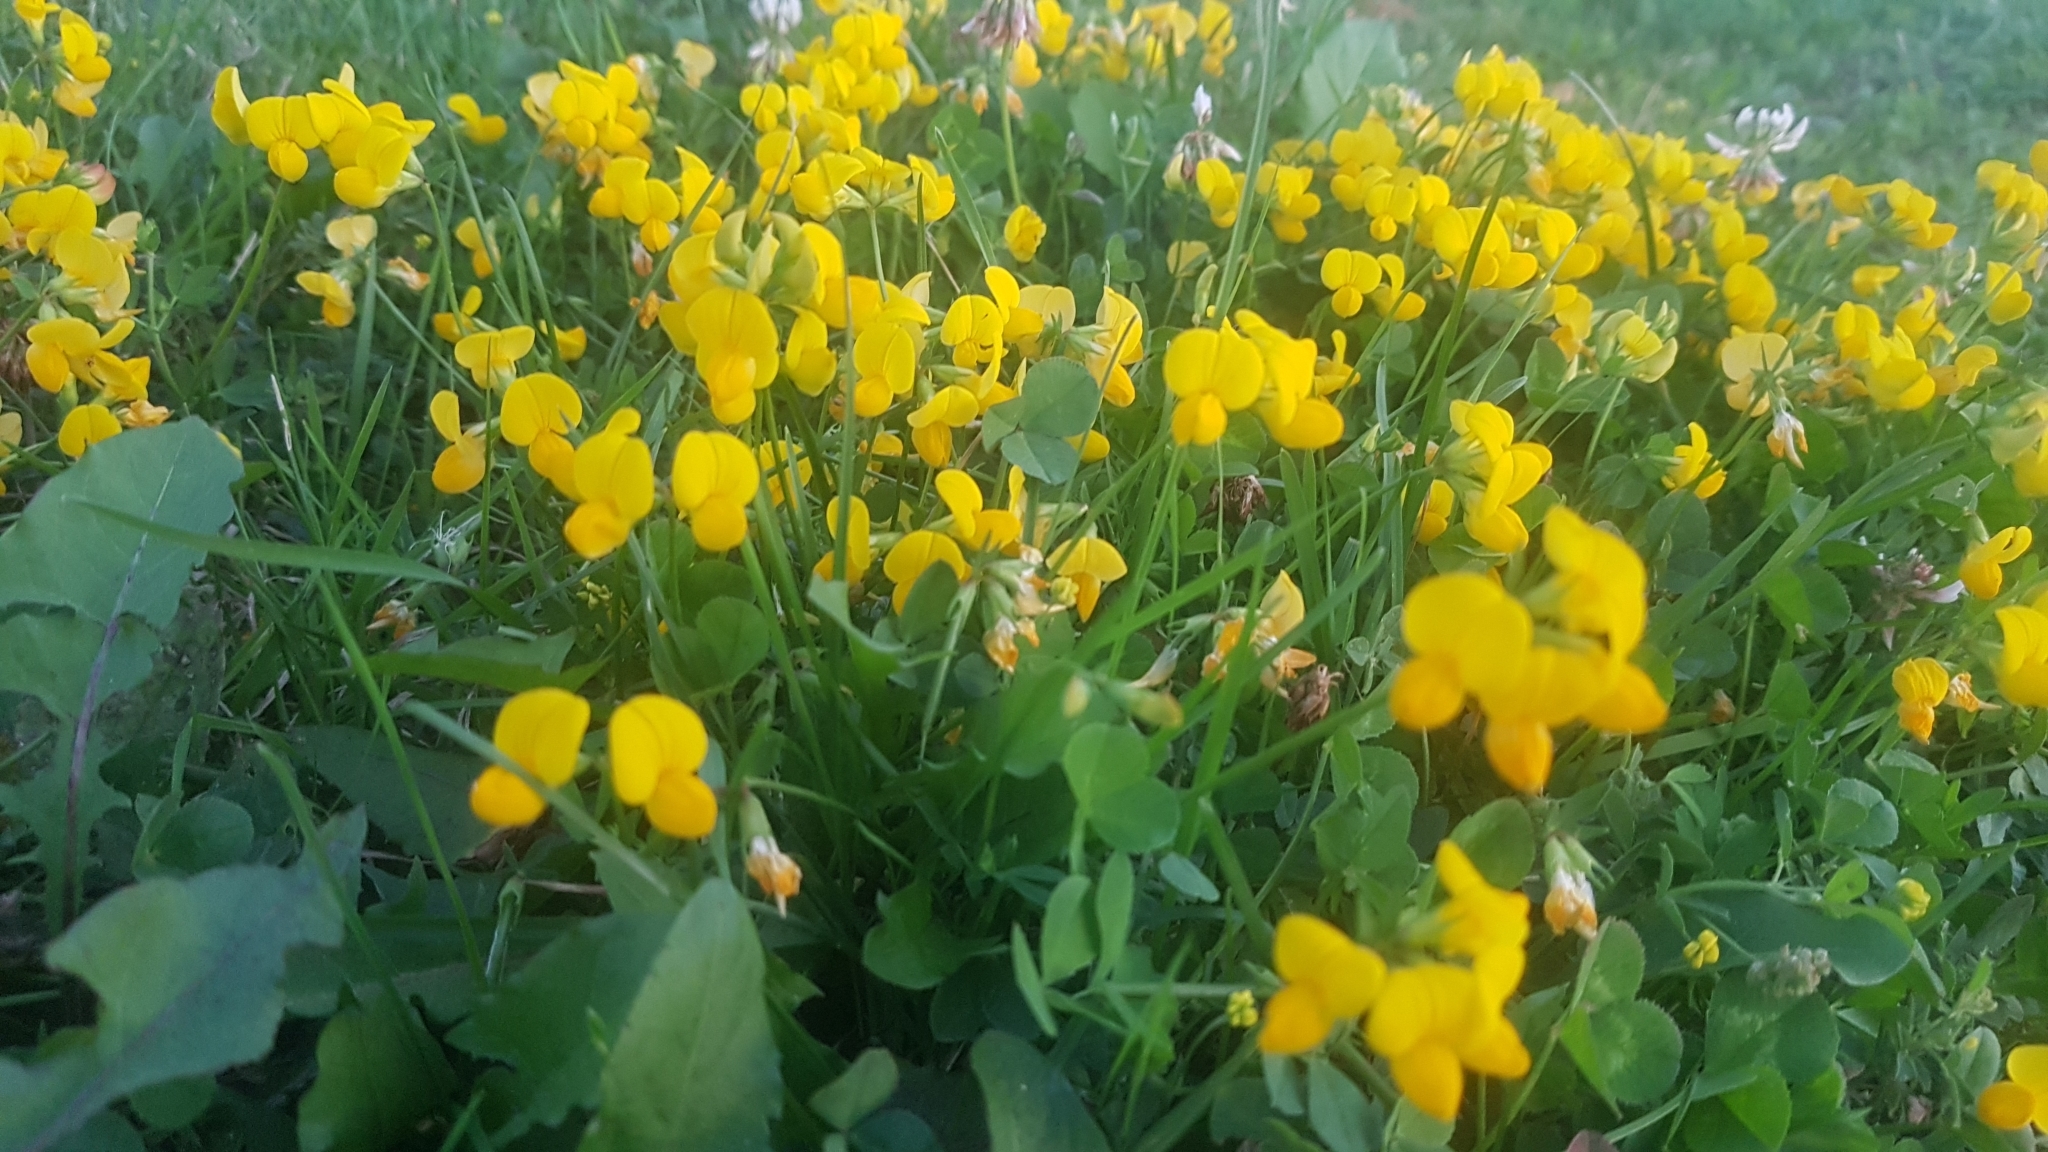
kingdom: Plantae
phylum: Tracheophyta
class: Magnoliopsida
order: Fabales
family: Fabaceae
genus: Lotus
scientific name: Lotus corniculatus
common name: Common bird's-foot-trefoil
